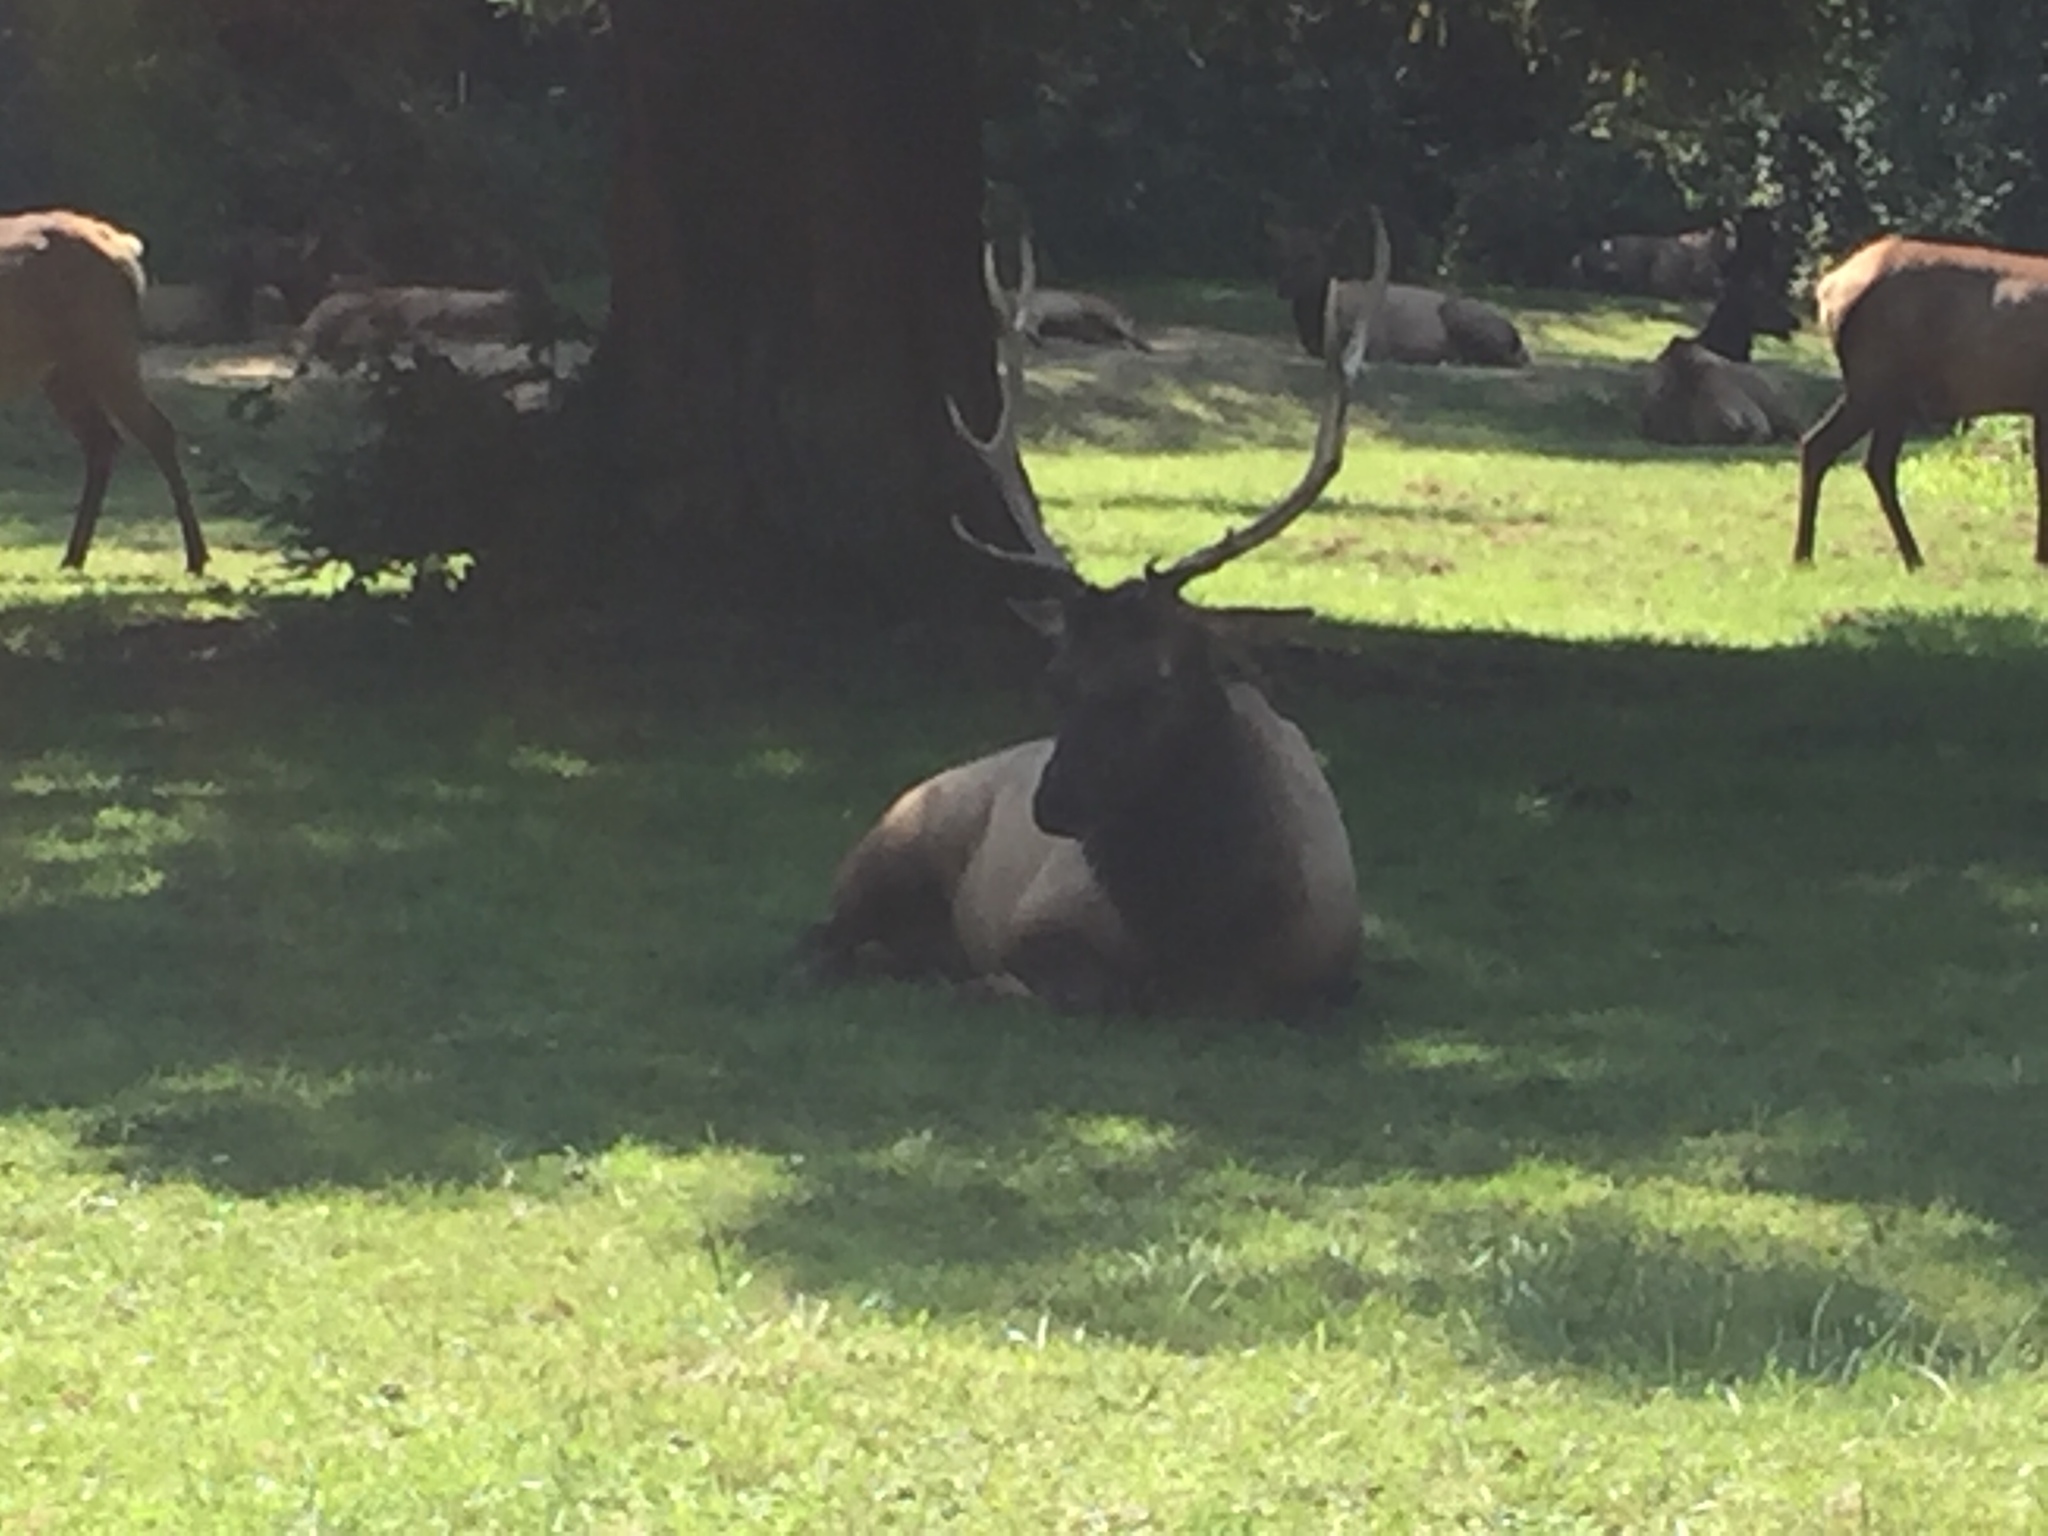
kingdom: Animalia
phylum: Chordata
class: Mammalia
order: Artiodactyla
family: Cervidae
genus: Cervus
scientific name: Cervus elaphus
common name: Red deer
